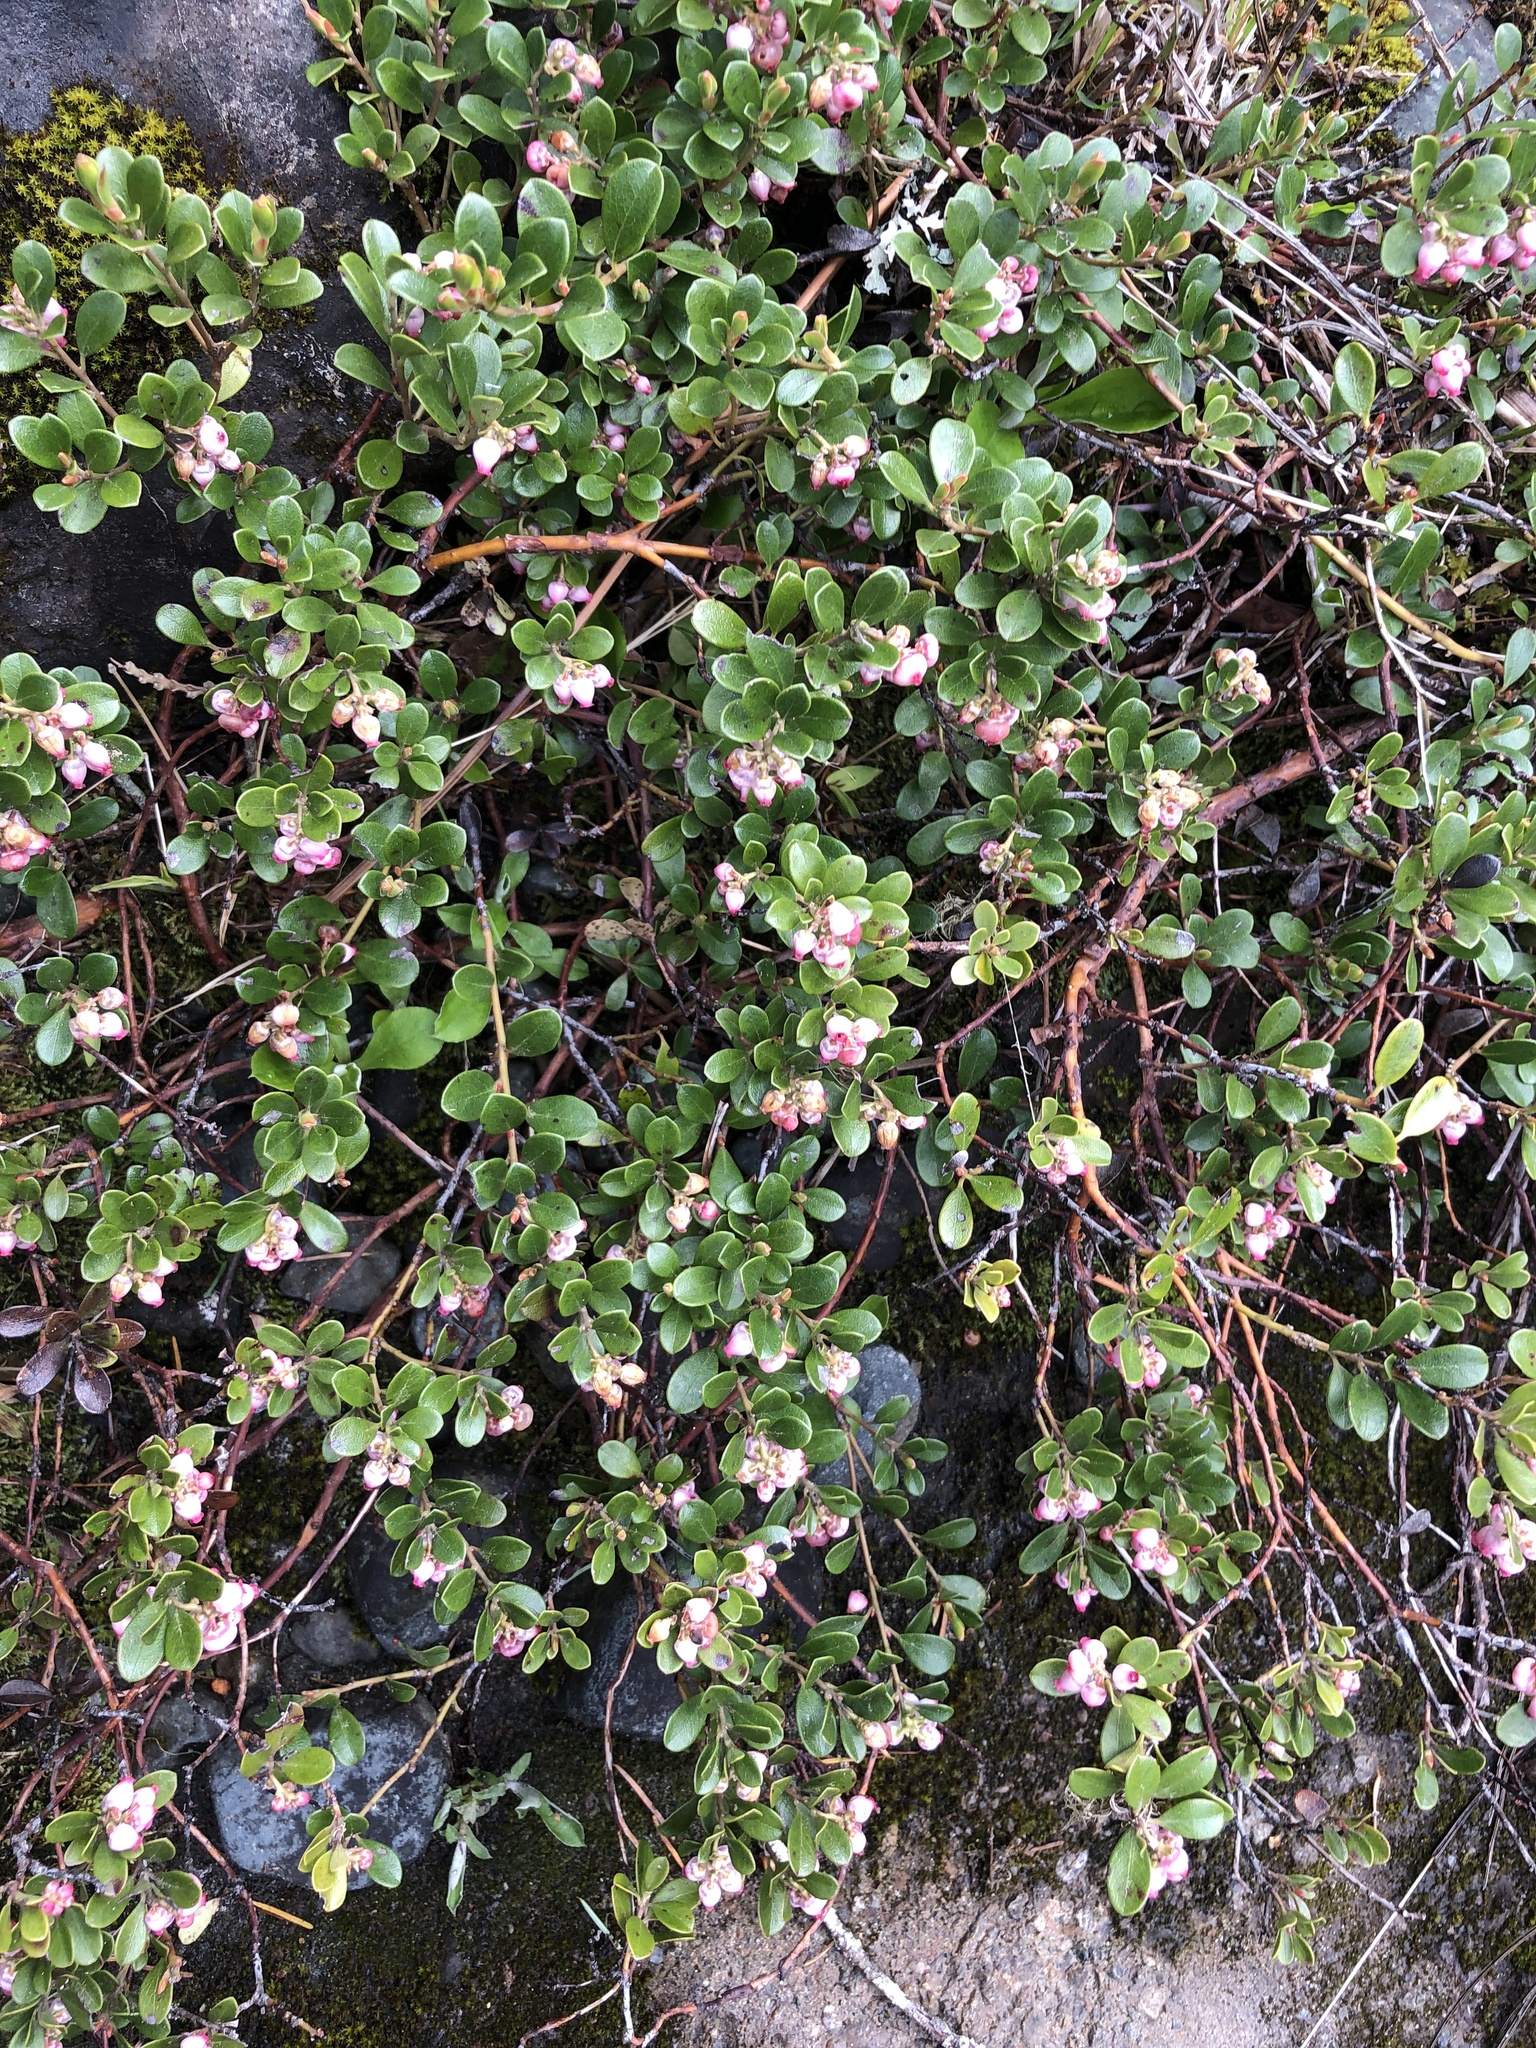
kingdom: Plantae
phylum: Tracheophyta
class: Magnoliopsida
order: Ericales
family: Ericaceae
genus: Arctostaphylos
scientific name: Arctostaphylos uva-ursi
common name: Bearberry
